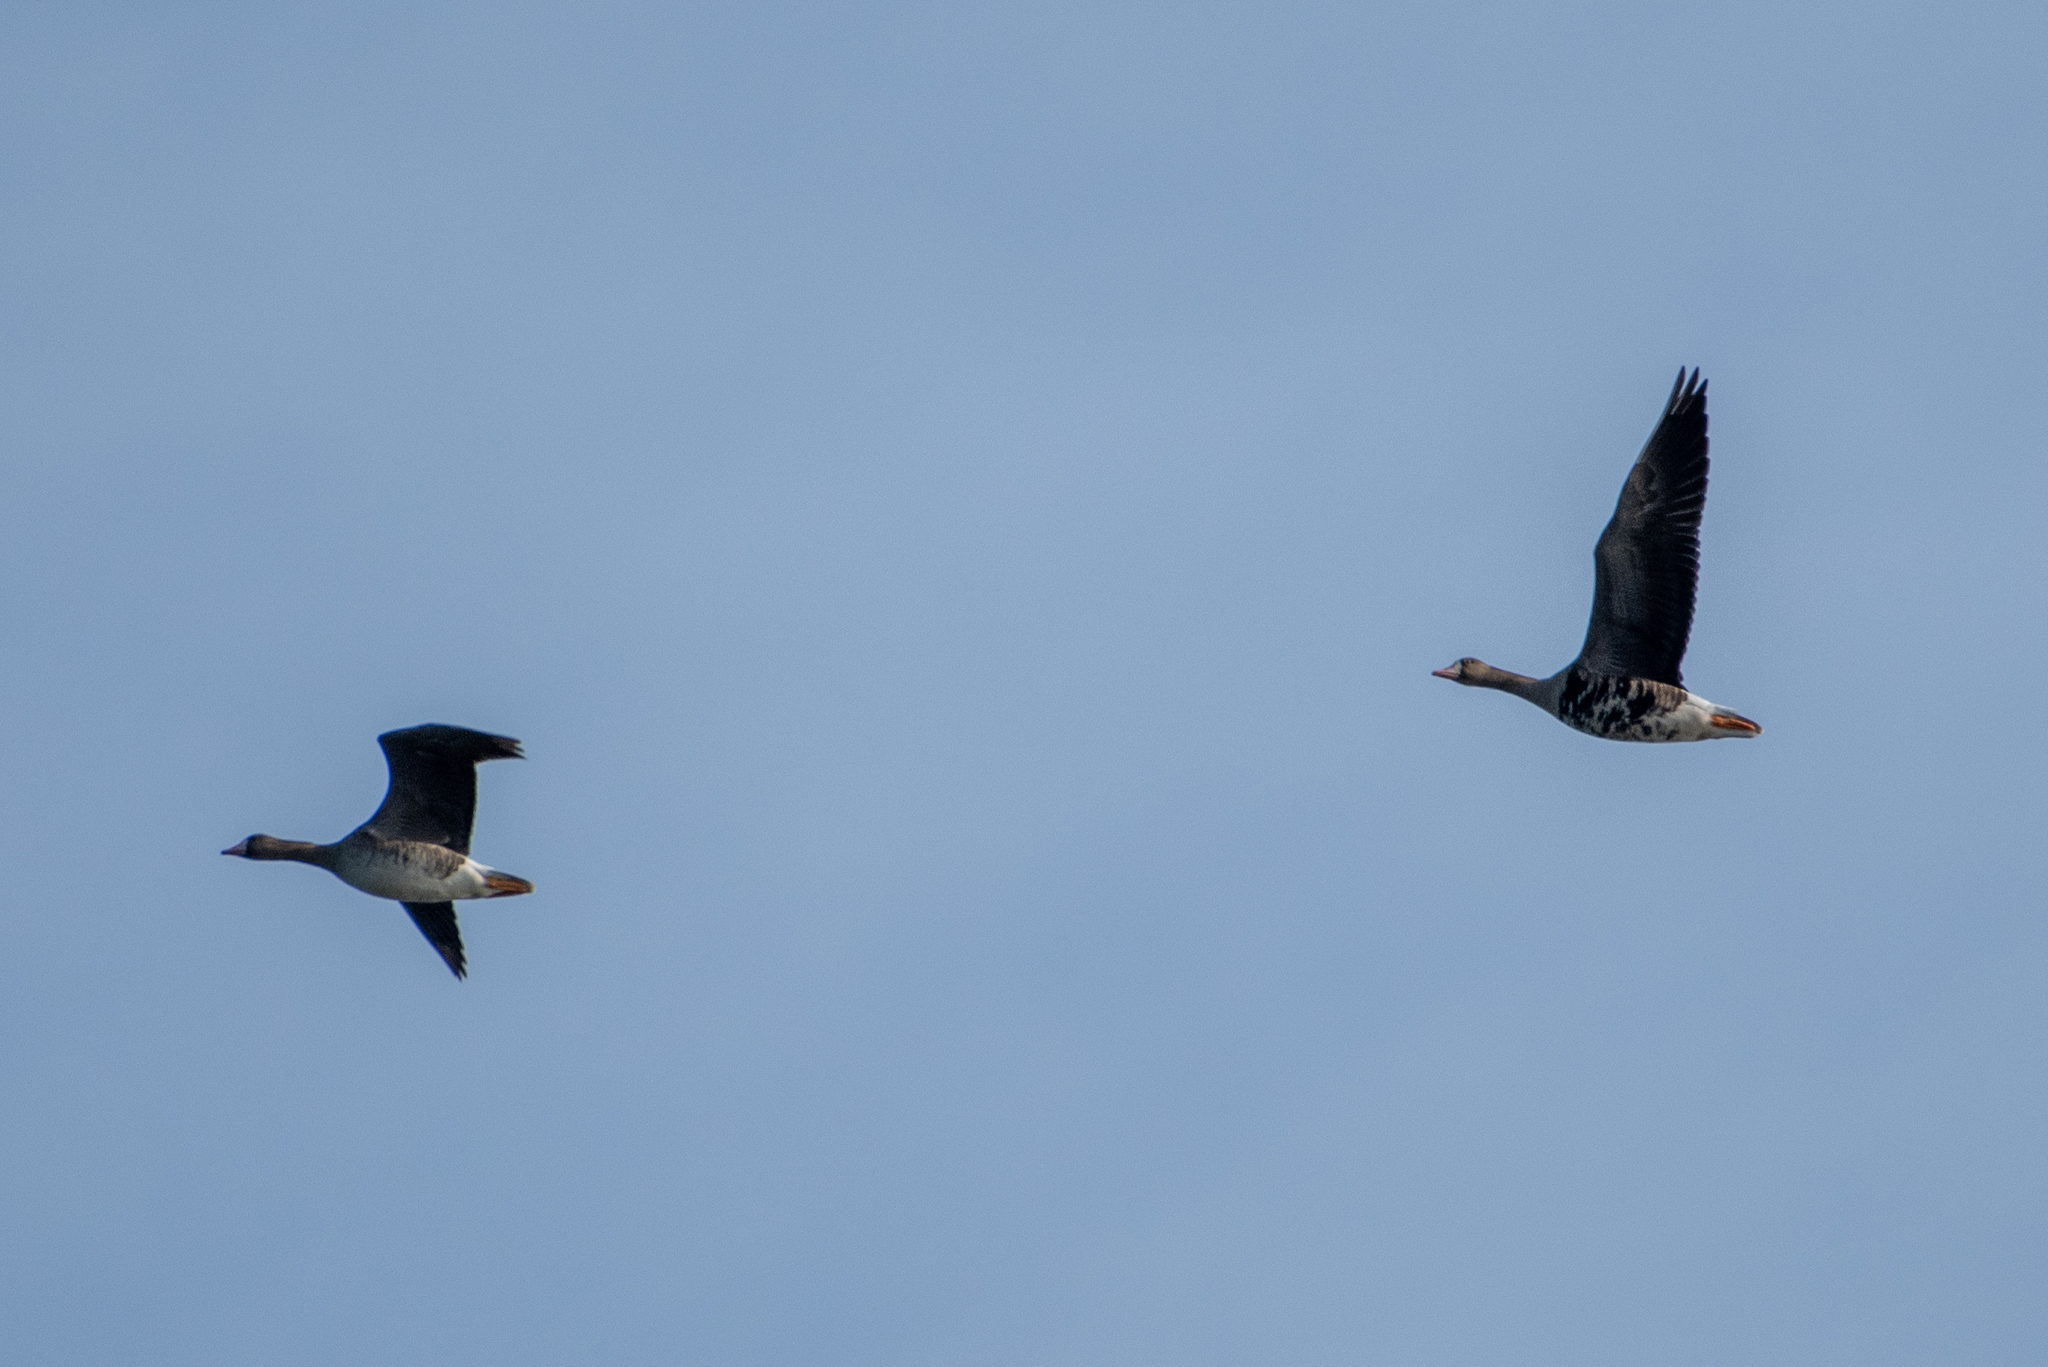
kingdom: Animalia
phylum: Chordata
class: Aves
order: Anseriformes
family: Anatidae
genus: Anser
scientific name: Anser albifrons
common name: Greater white-fronted goose
